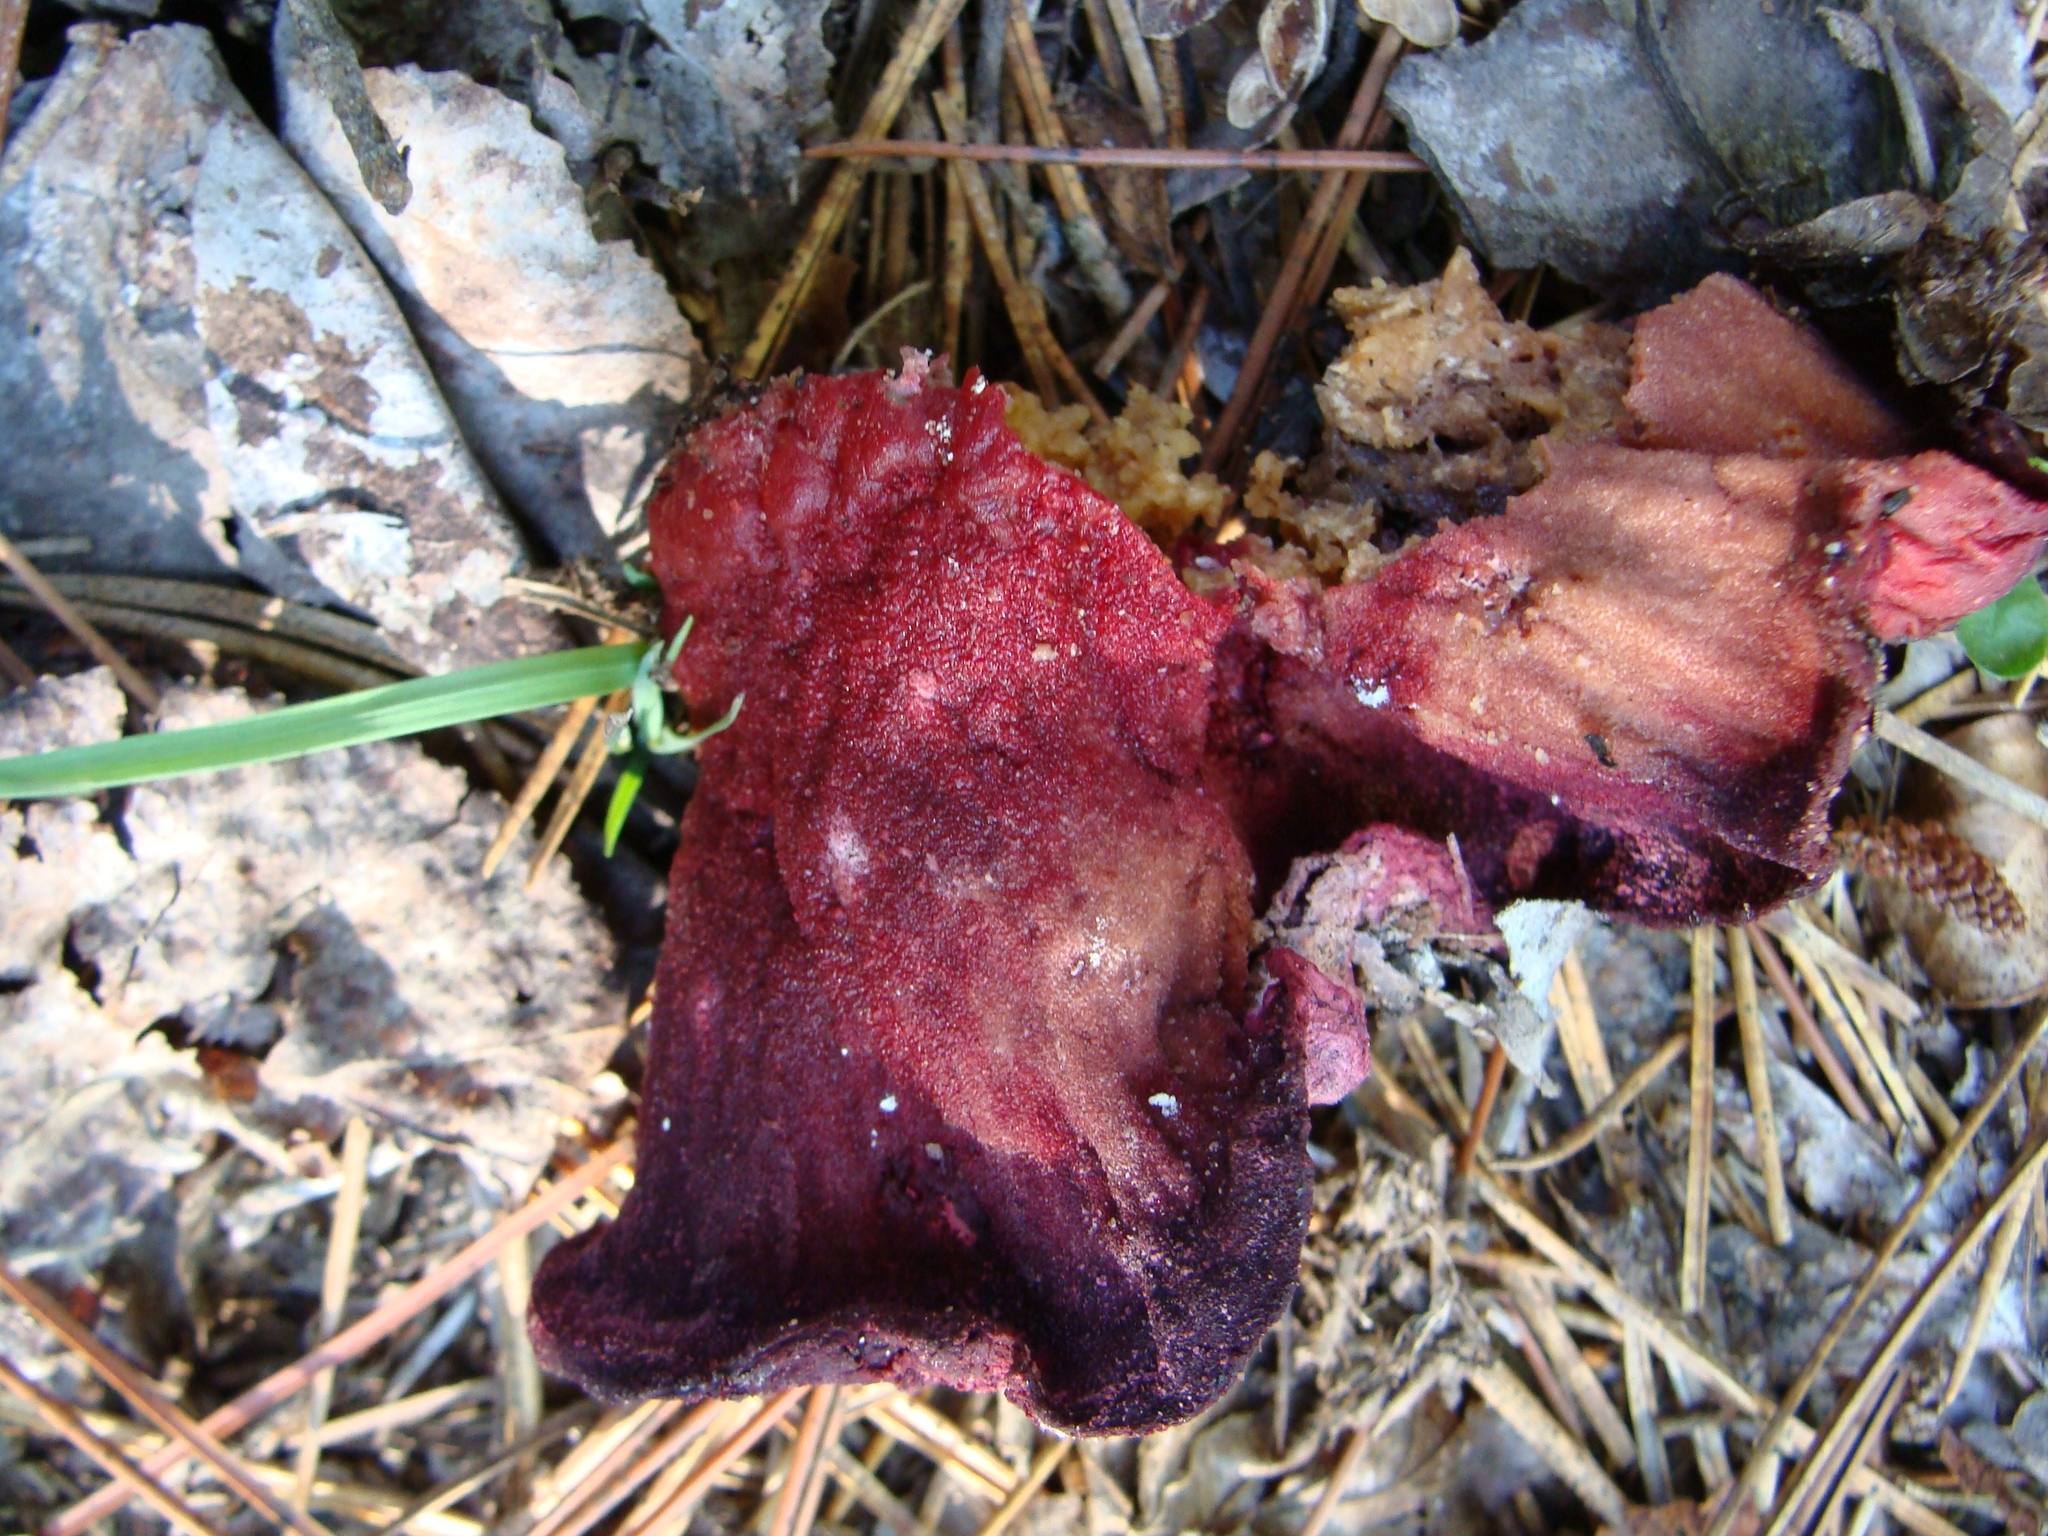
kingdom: Fungi
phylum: Ascomycota
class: Sordariomycetes
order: Hypocreales
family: Hypocreaceae
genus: Hypomyces
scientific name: Hypomyces lactifluorum
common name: Lobster mushroom
